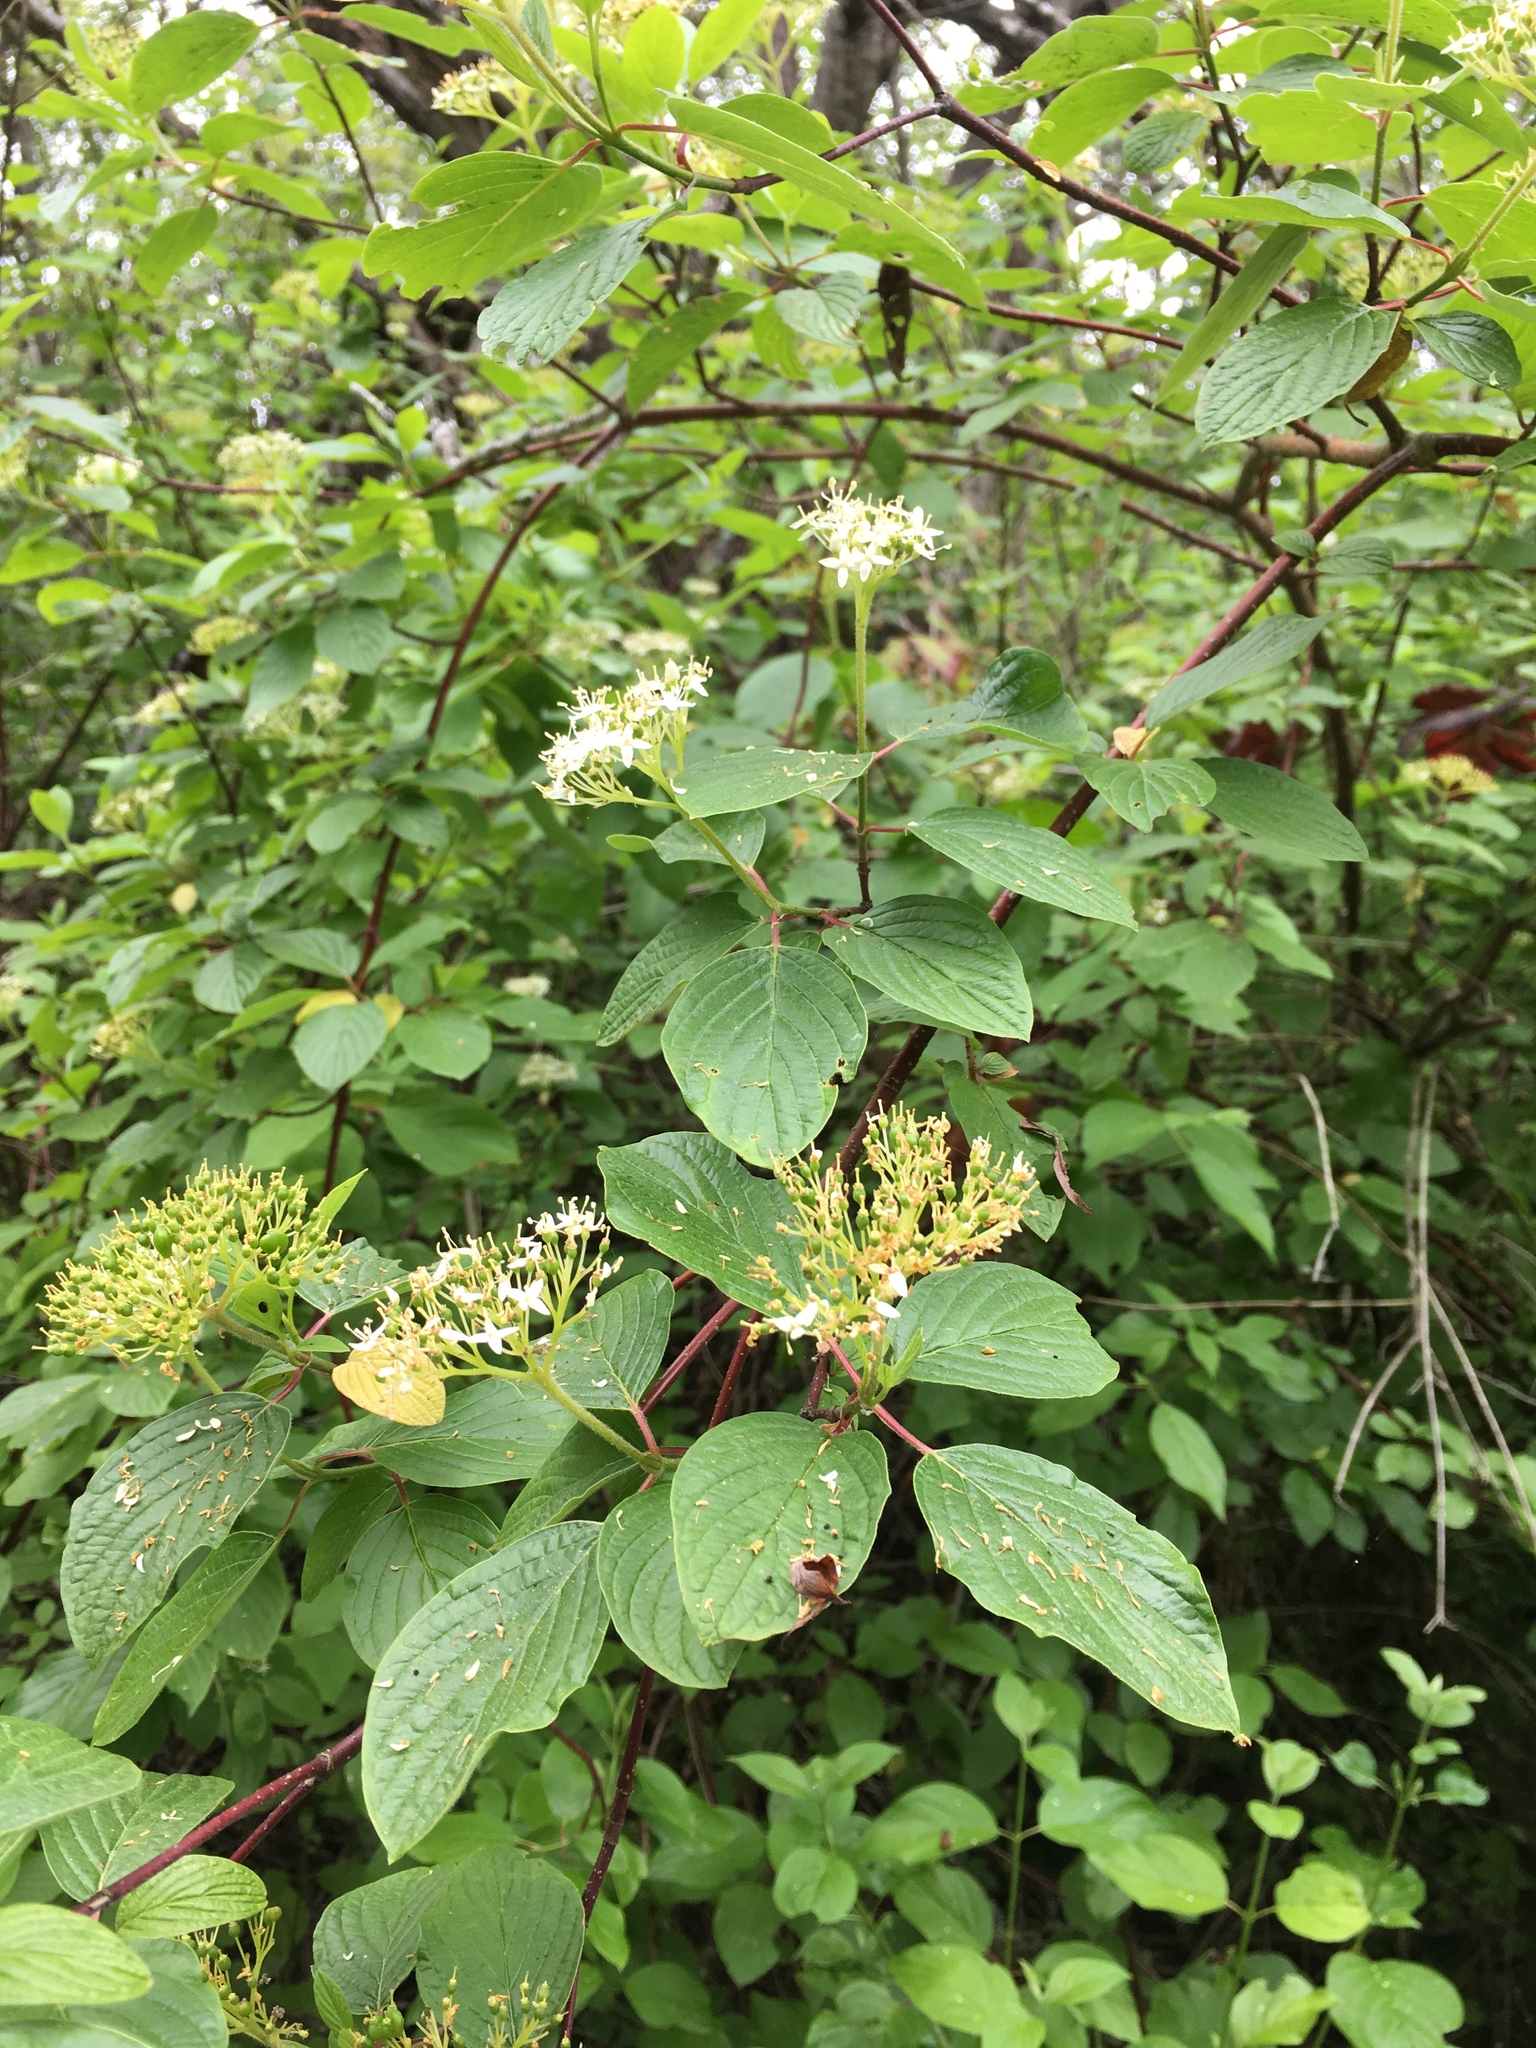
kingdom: Plantae
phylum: Tracheophyta
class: Magnoliopsida
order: Cornales
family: Cornaceae
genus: Cornus
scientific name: Cornus sericea
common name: Red-osier dogwood
